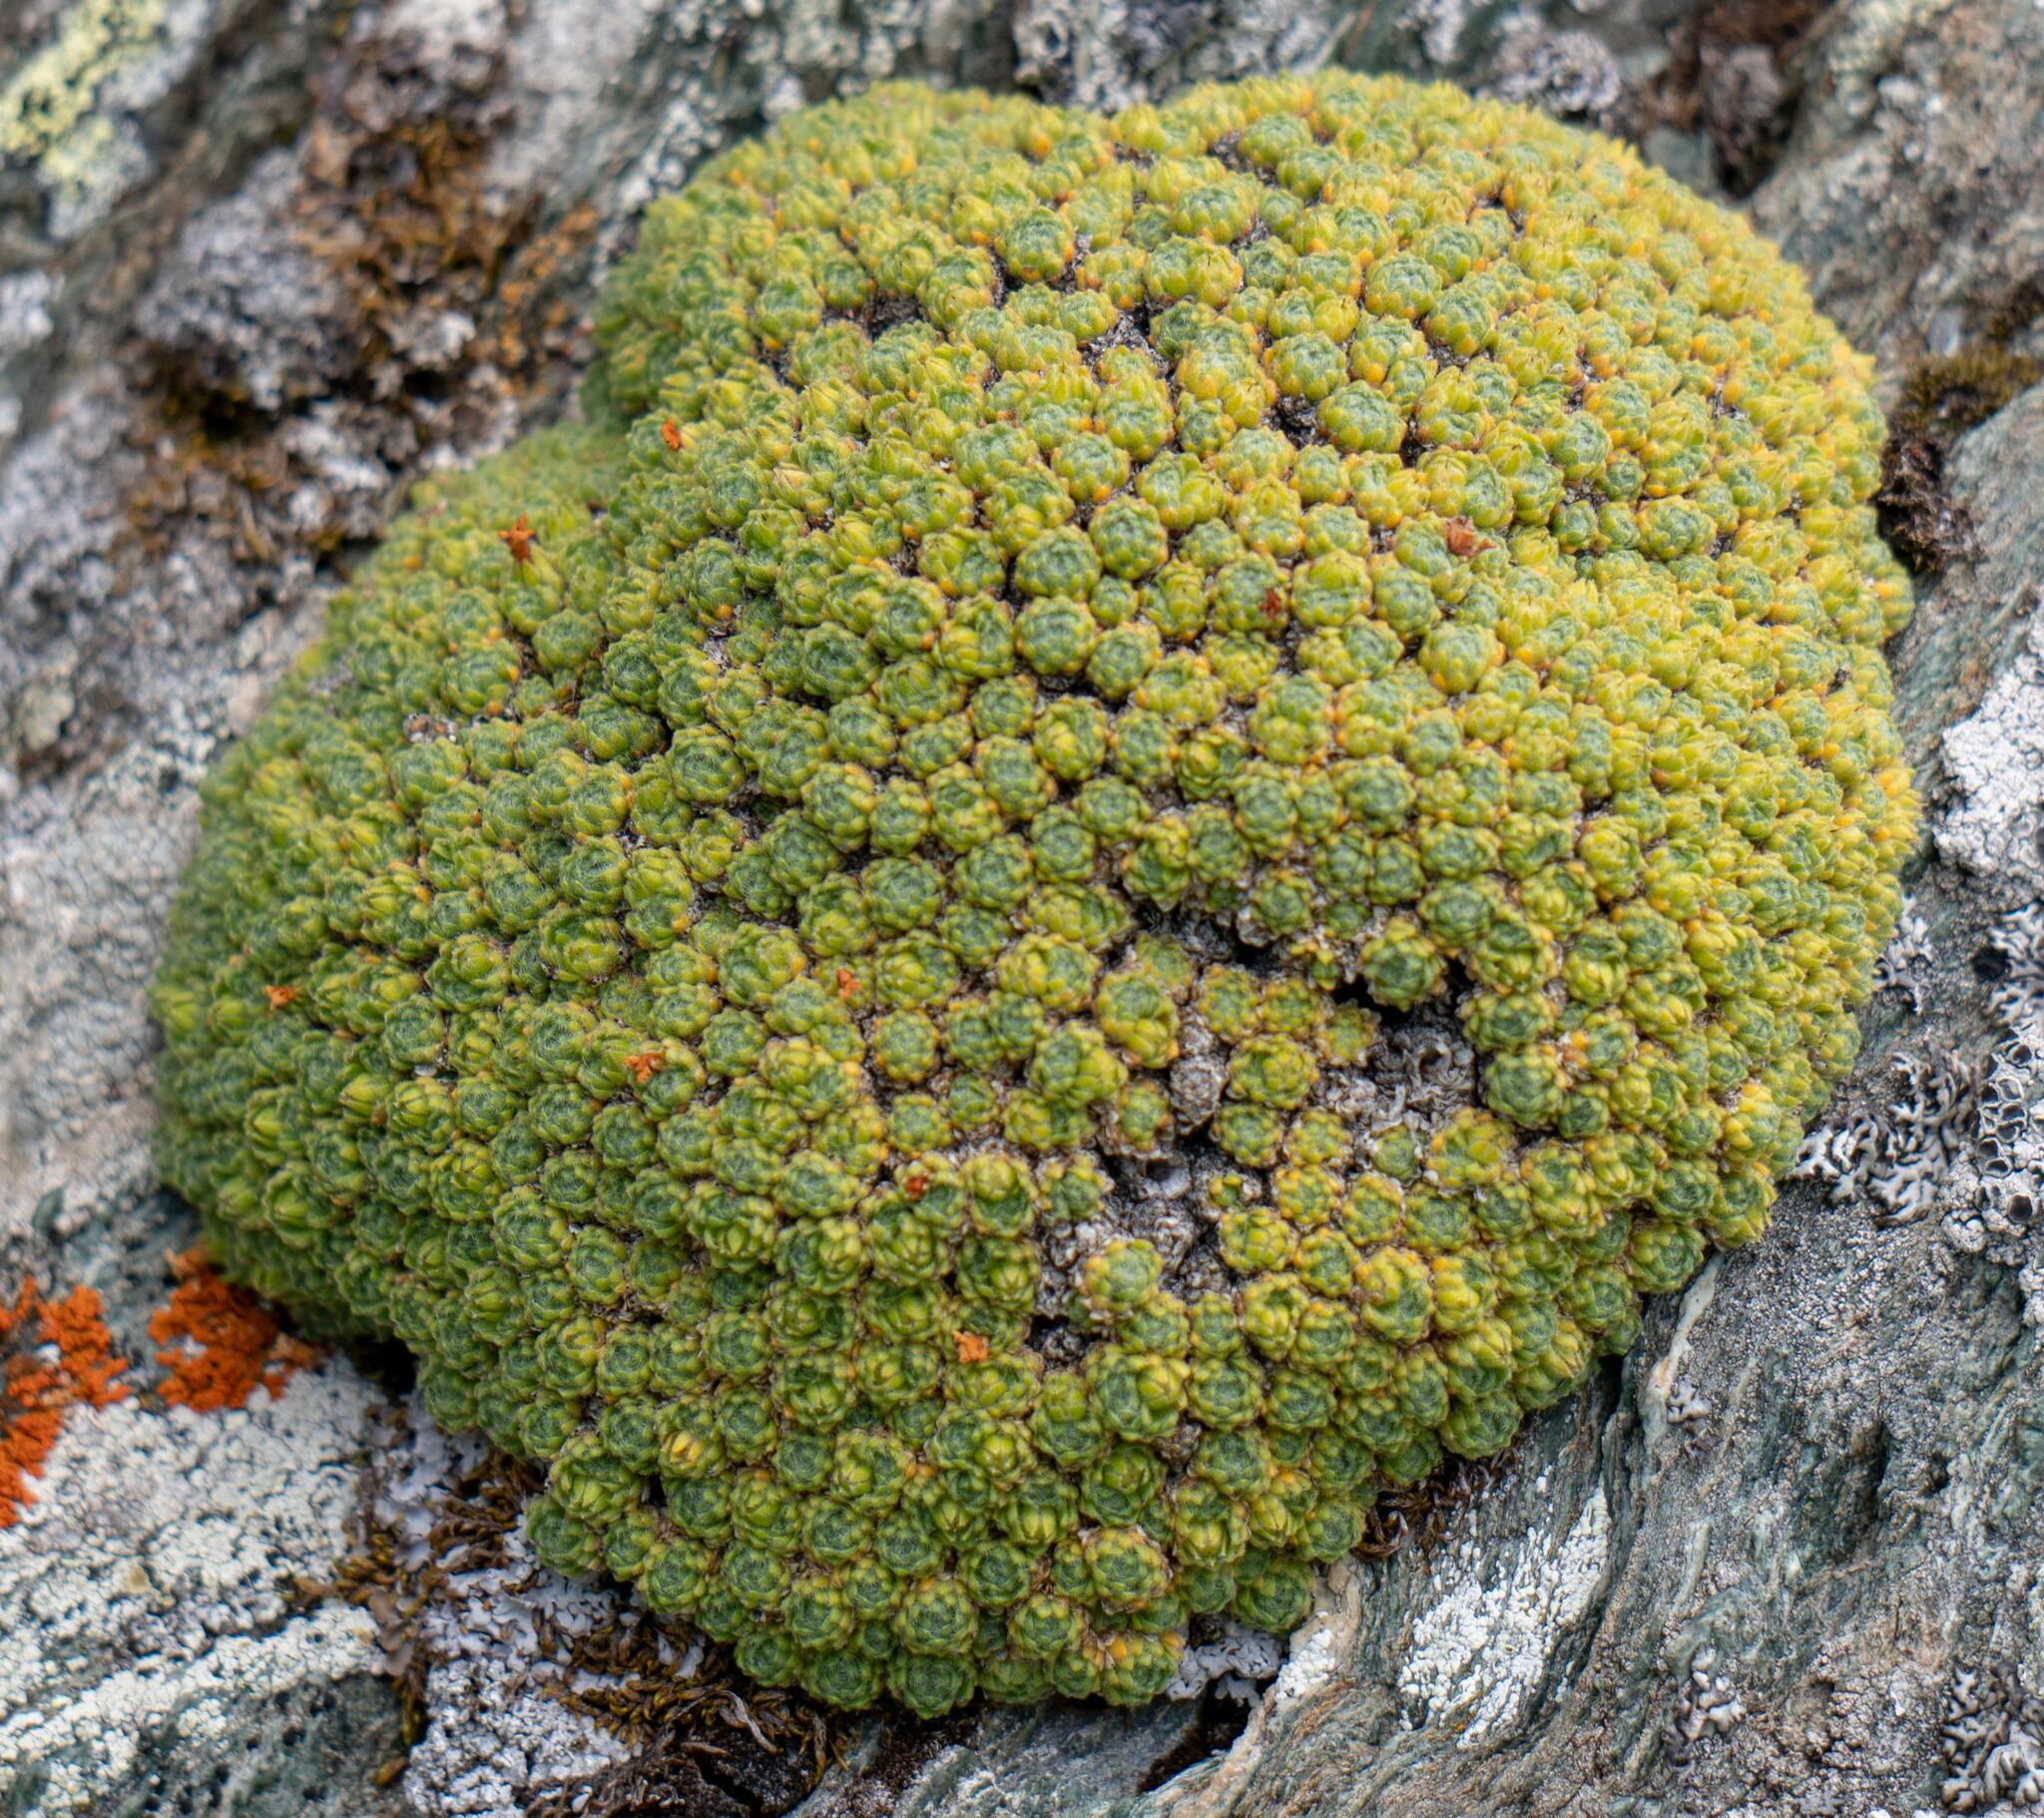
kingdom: Plantae
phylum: Tracheophyta
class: Magnoliopsida
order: Ericales
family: Primulaceae
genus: Androsace
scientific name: Androsace helvetica
